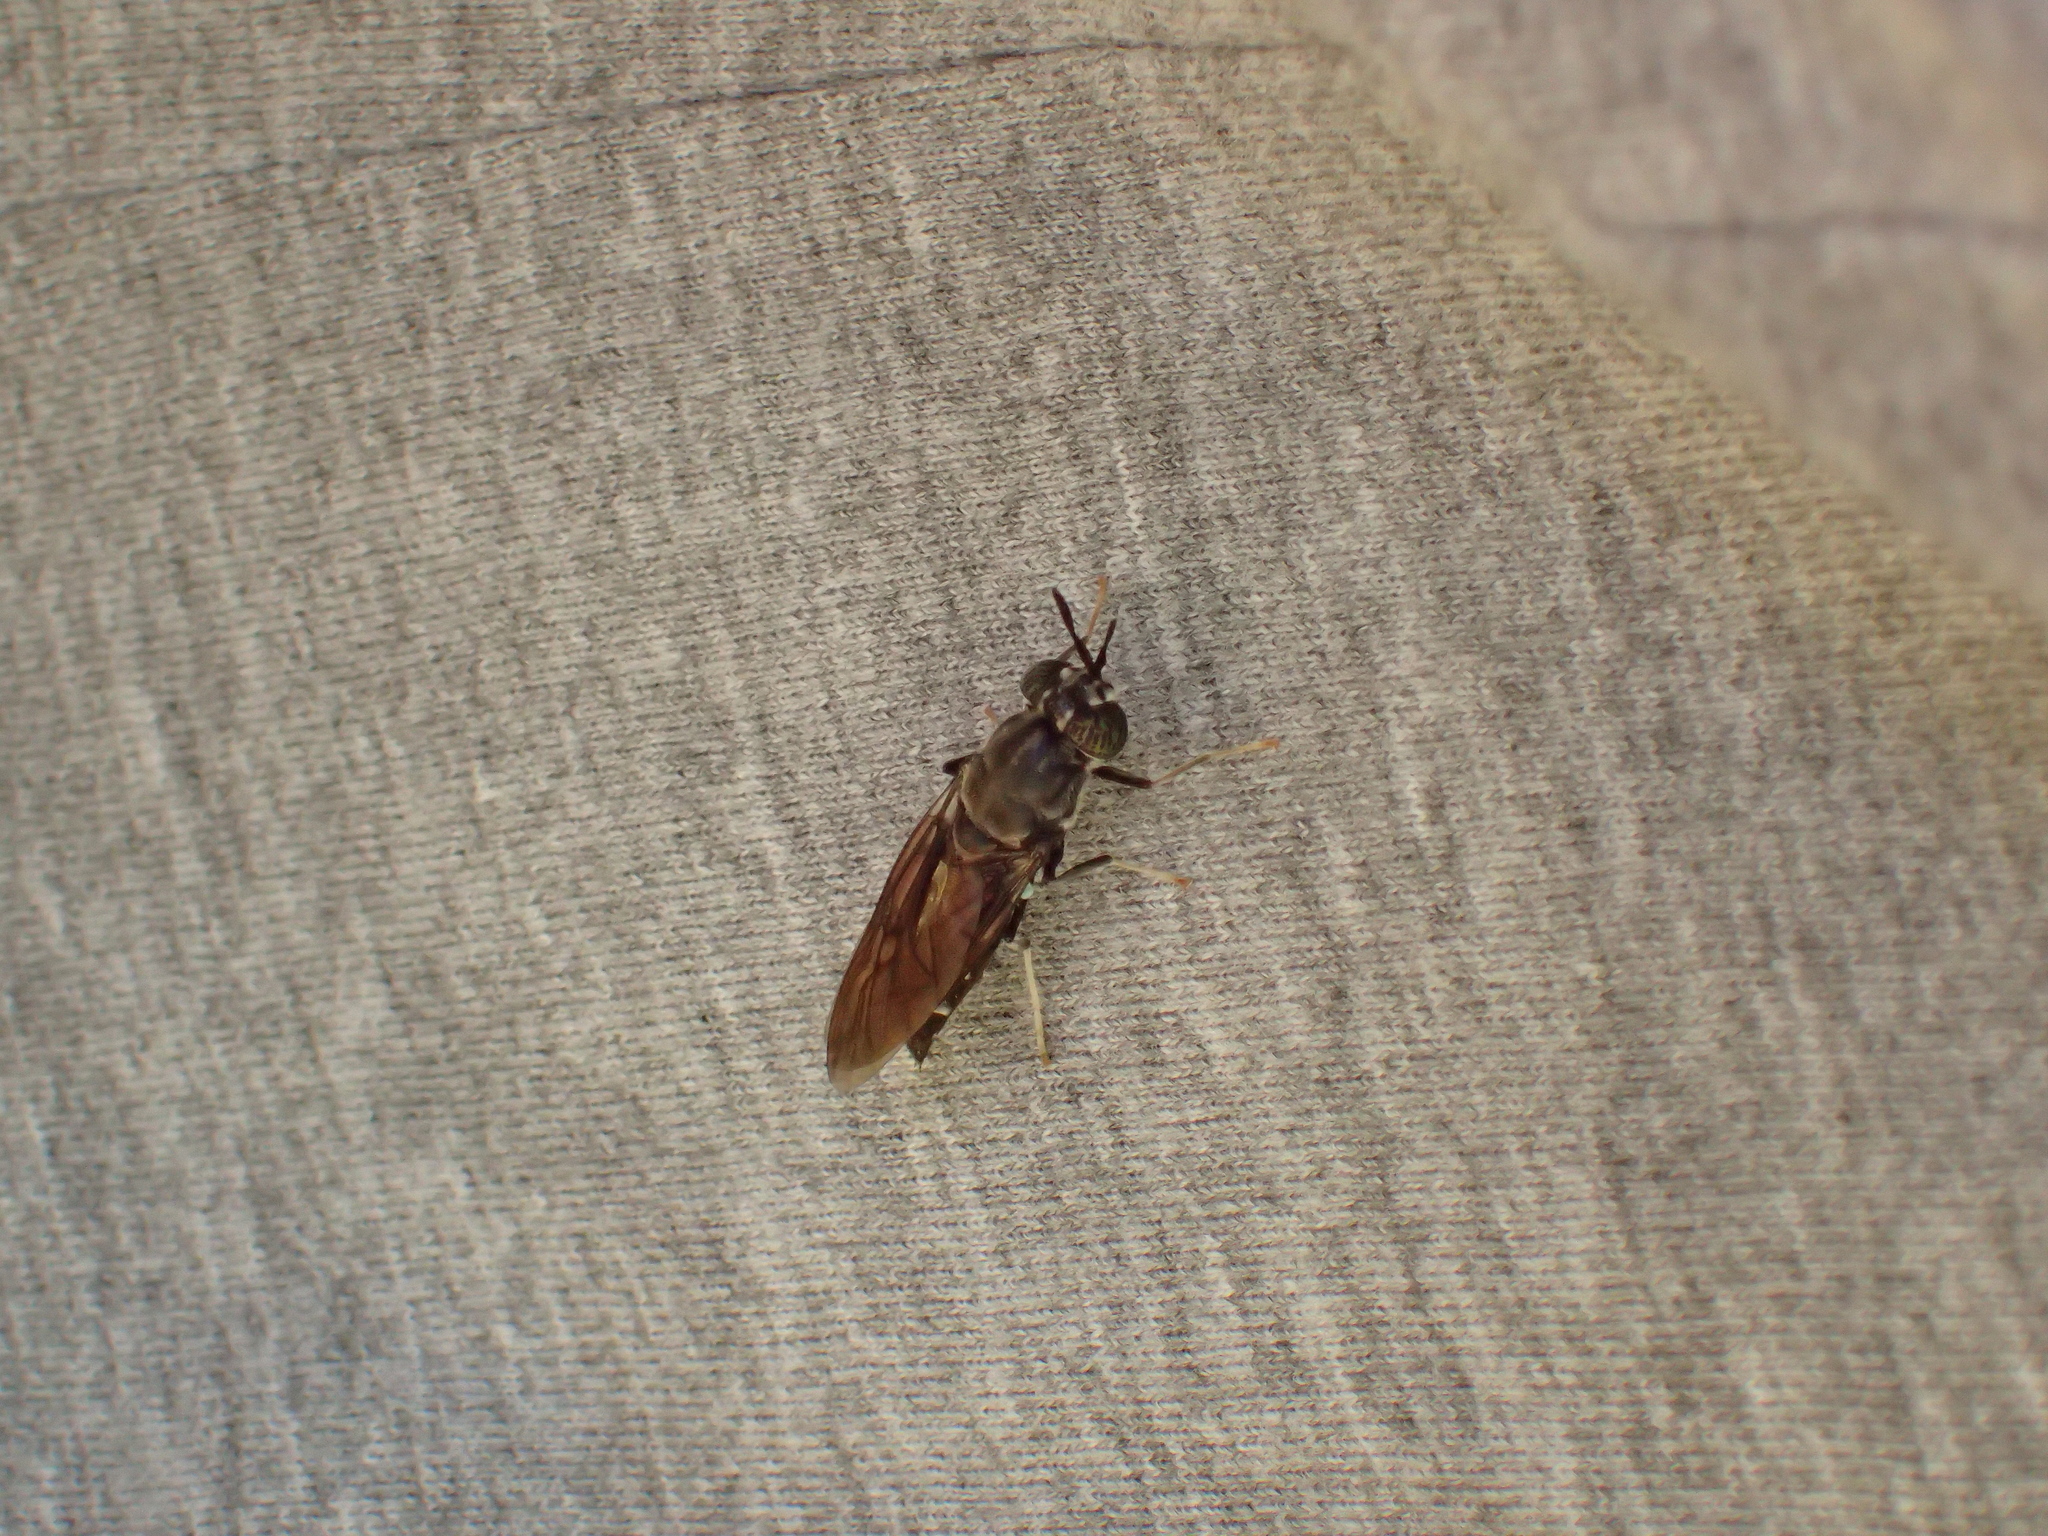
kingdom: Animalia
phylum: Arthropoda
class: Insecta
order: Diptera
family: Stratiomyidae
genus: Hermetia
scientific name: Hermetia illucens
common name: Black soldier fly
